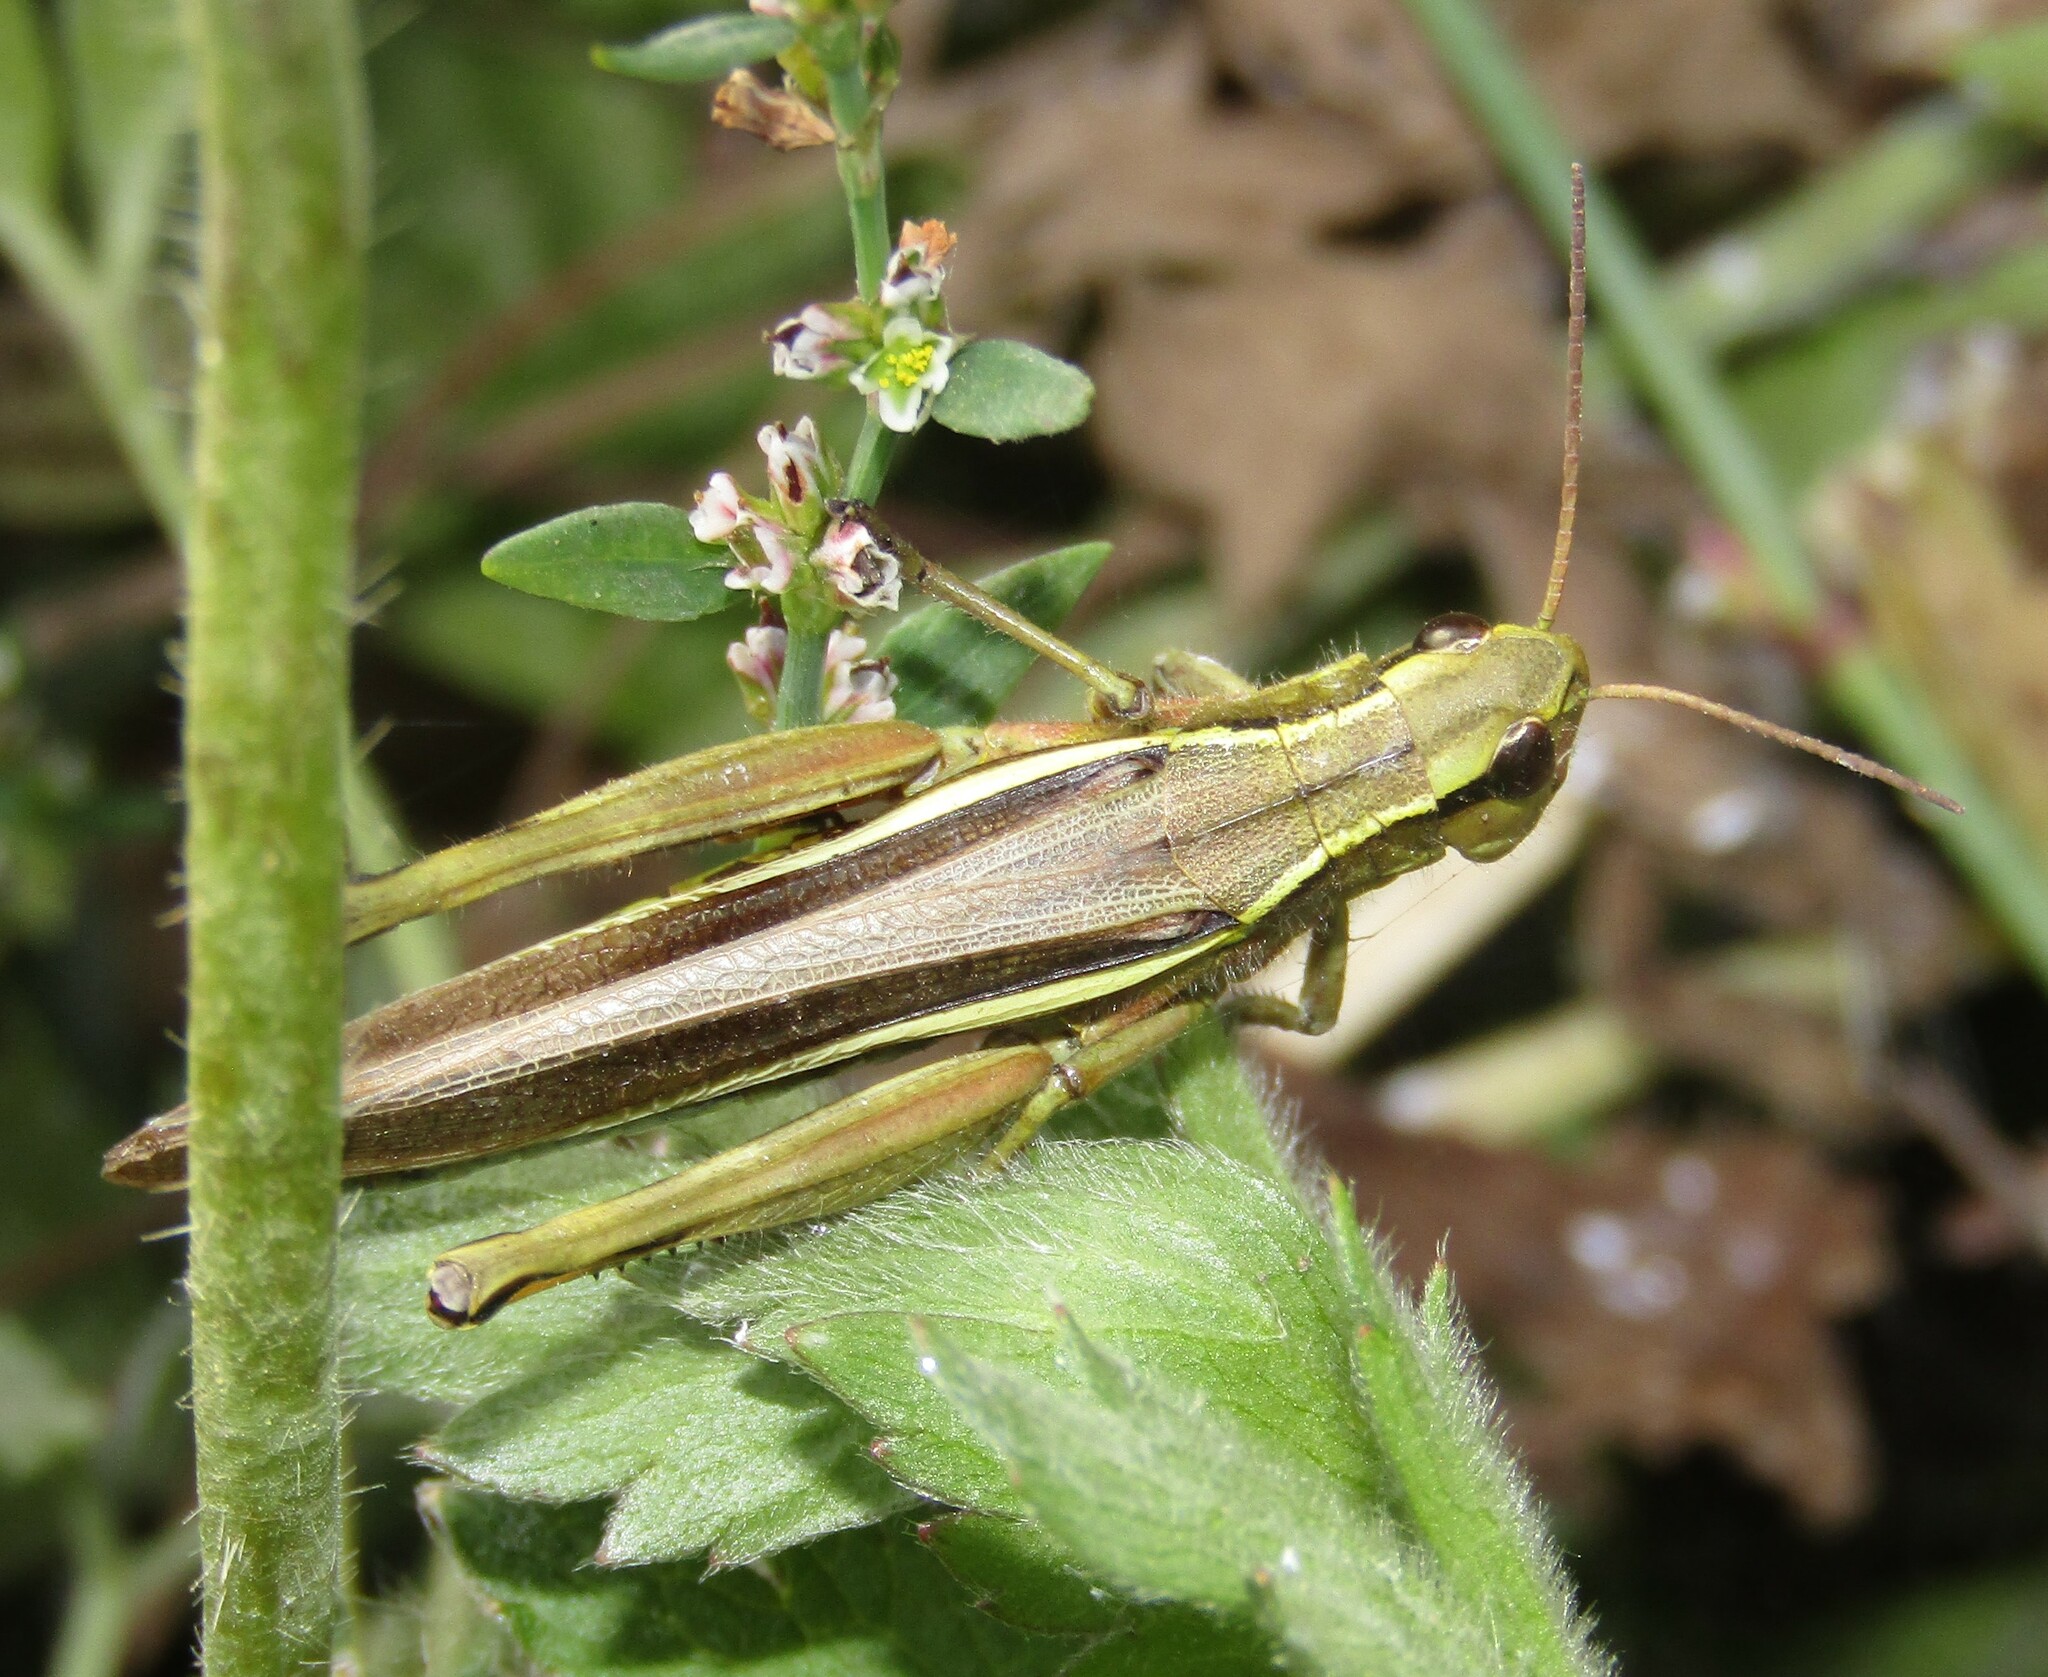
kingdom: Animalia
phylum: Arthropoda
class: Insecta
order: Orthoptera
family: Acrididae
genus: Stethophyma
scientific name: Stethophyma grossum
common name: Large marsh grasshopper
